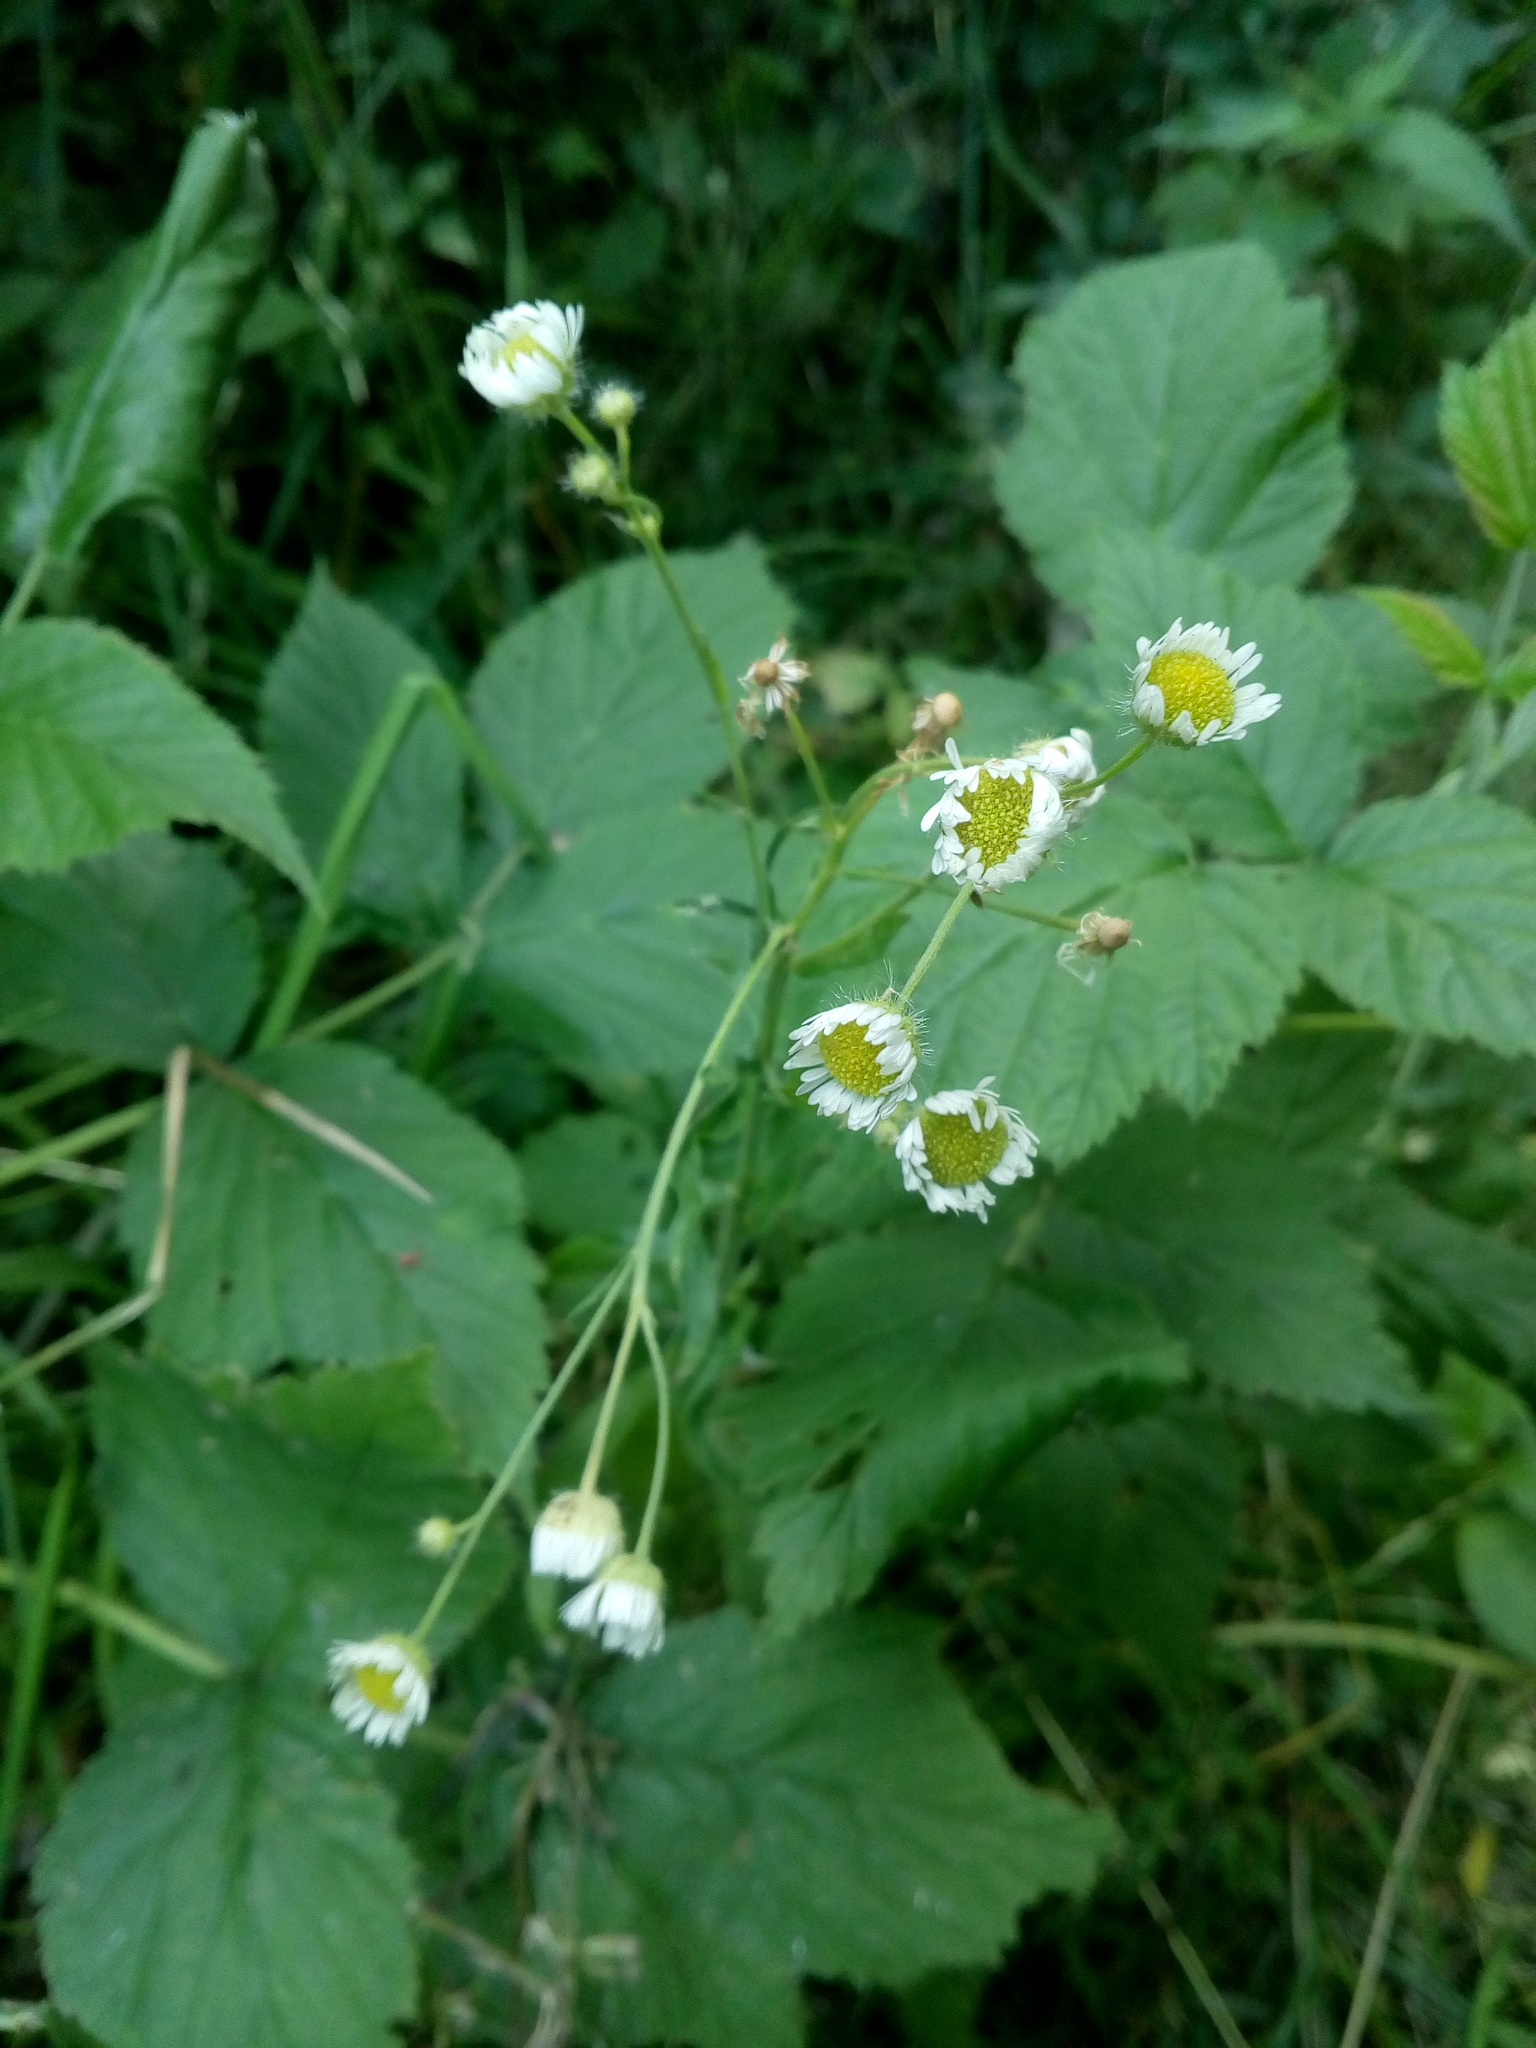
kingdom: Plantae
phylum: Tracheophyta
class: Magnoliopsida
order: Asterales
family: Asteraceae
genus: Erigeron
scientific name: Erigeron annuus
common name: Tall fleabane
